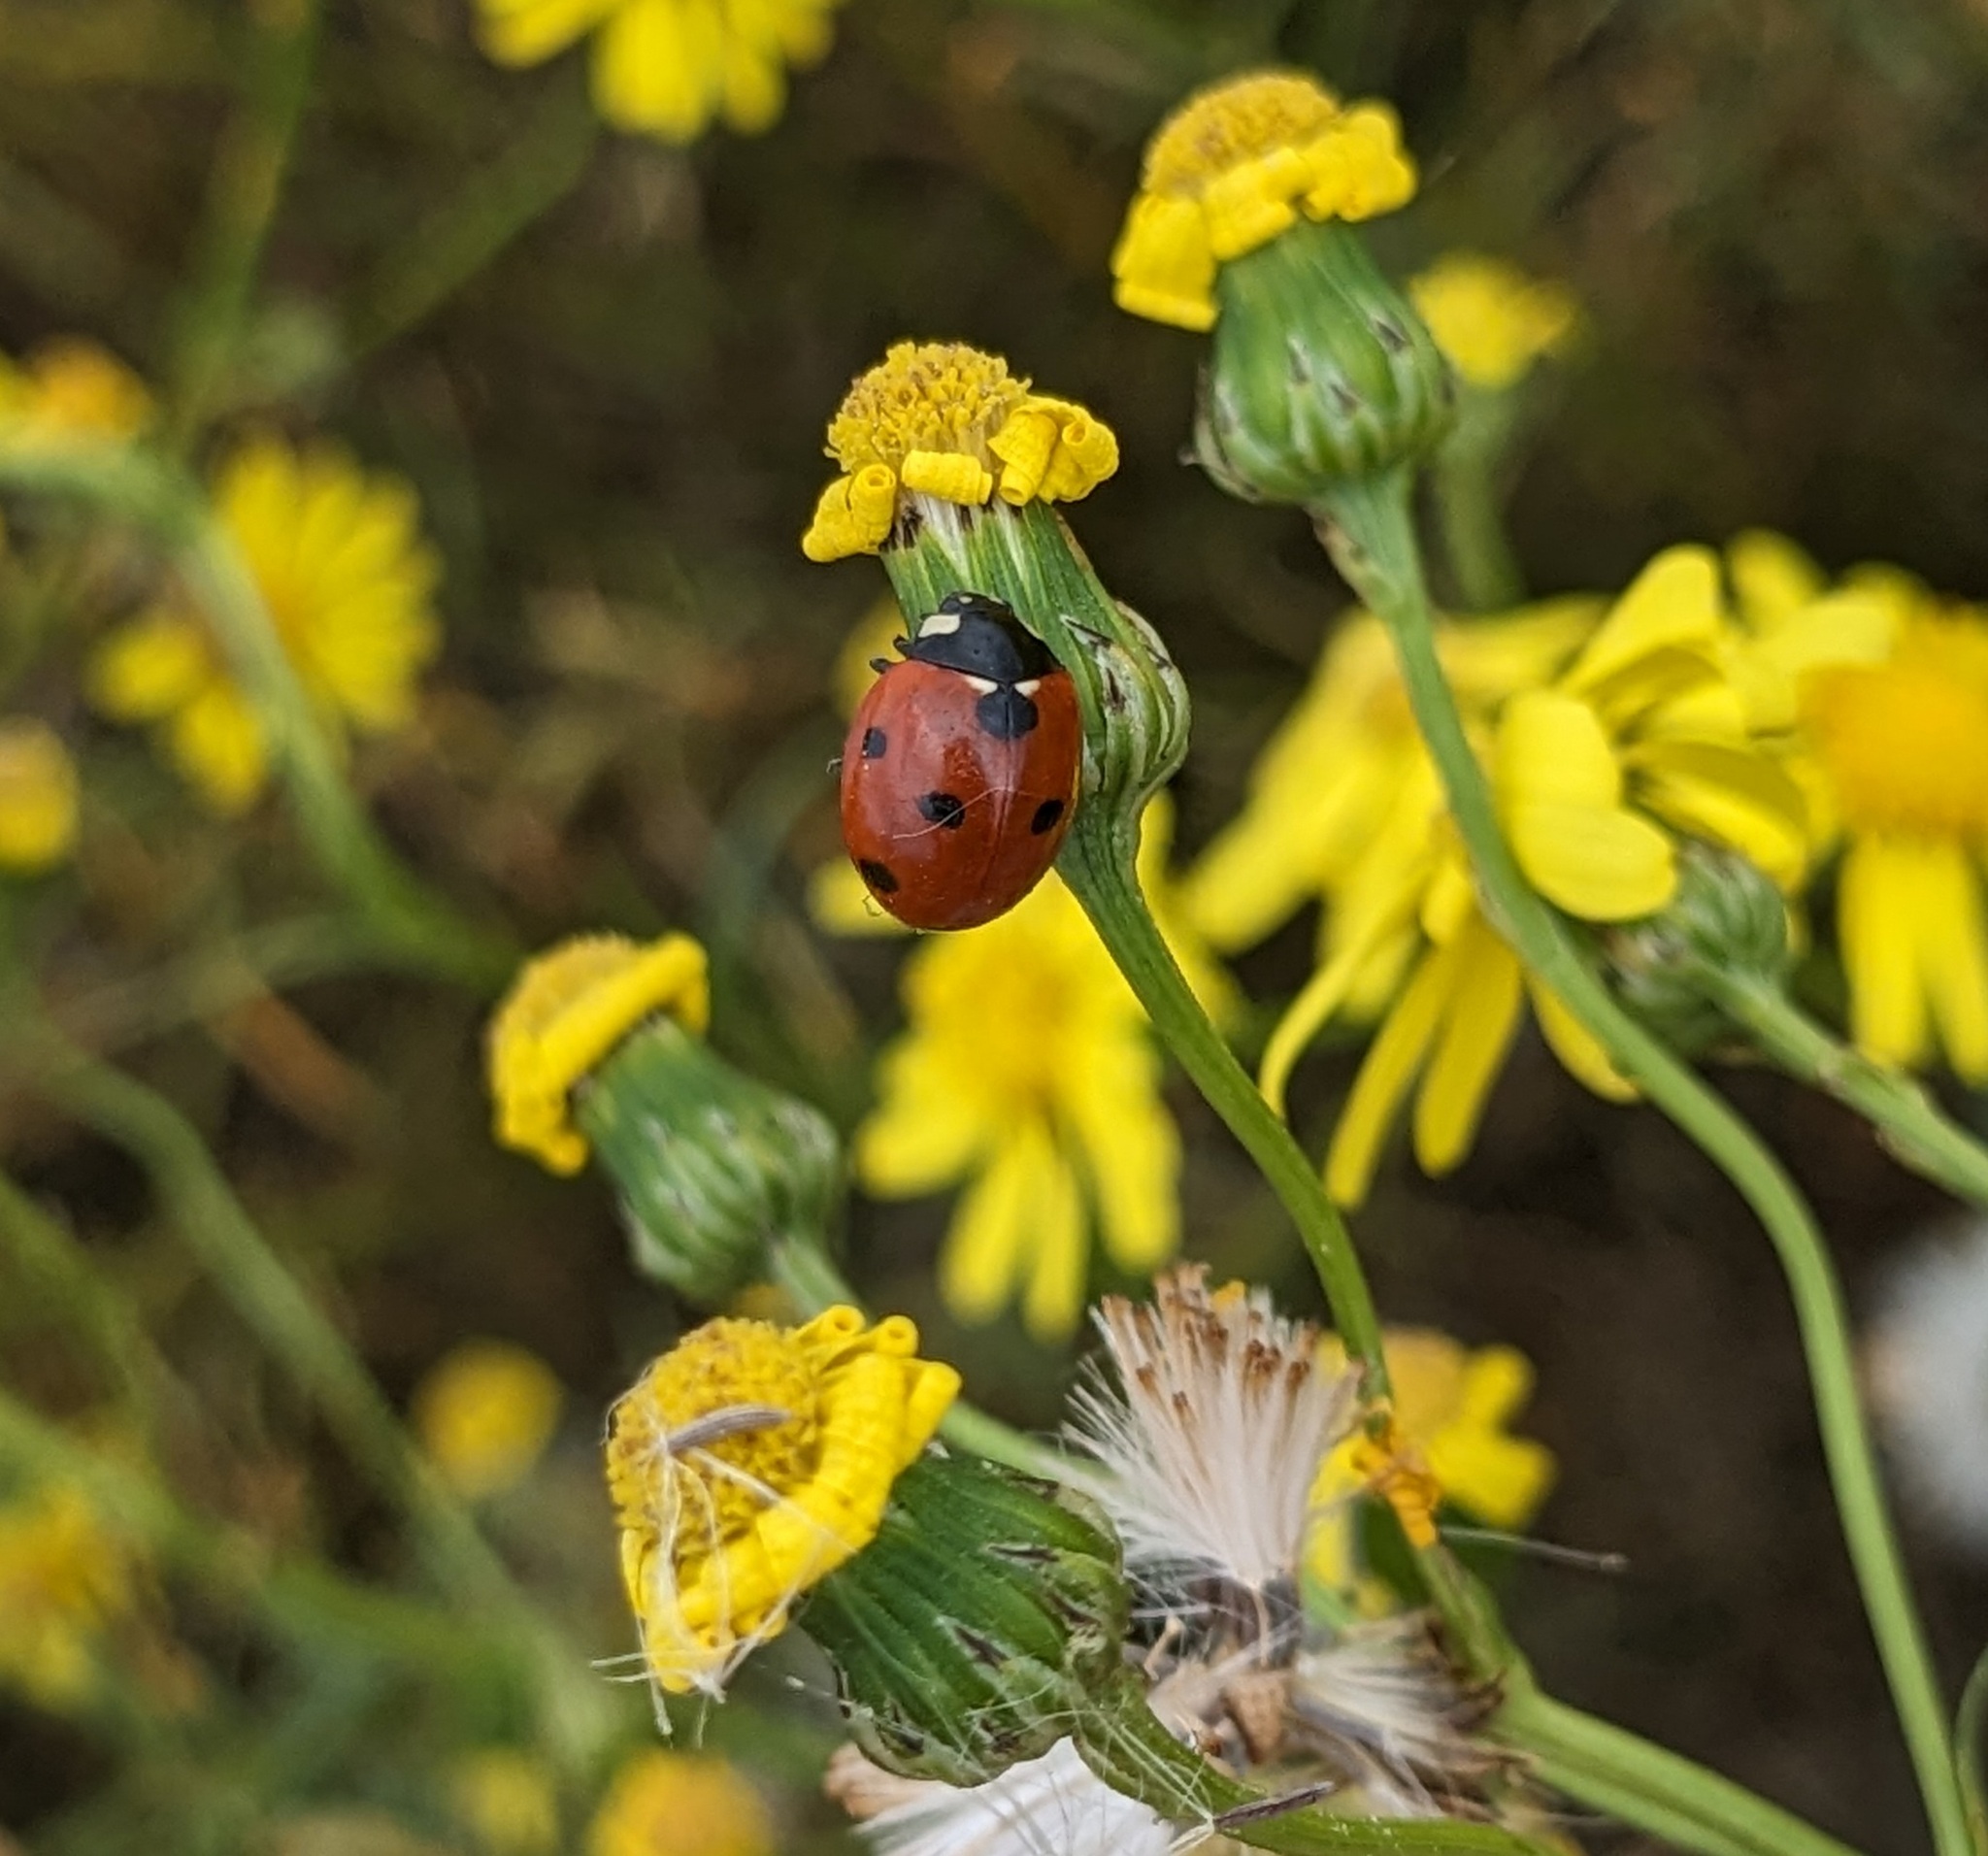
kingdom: Animalia
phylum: Arthropoda
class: Insecta
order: Coleoptera
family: Coccinellidae
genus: Coccinella
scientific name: Coccinella septempunctata
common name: Sevenspotted lady beetle
